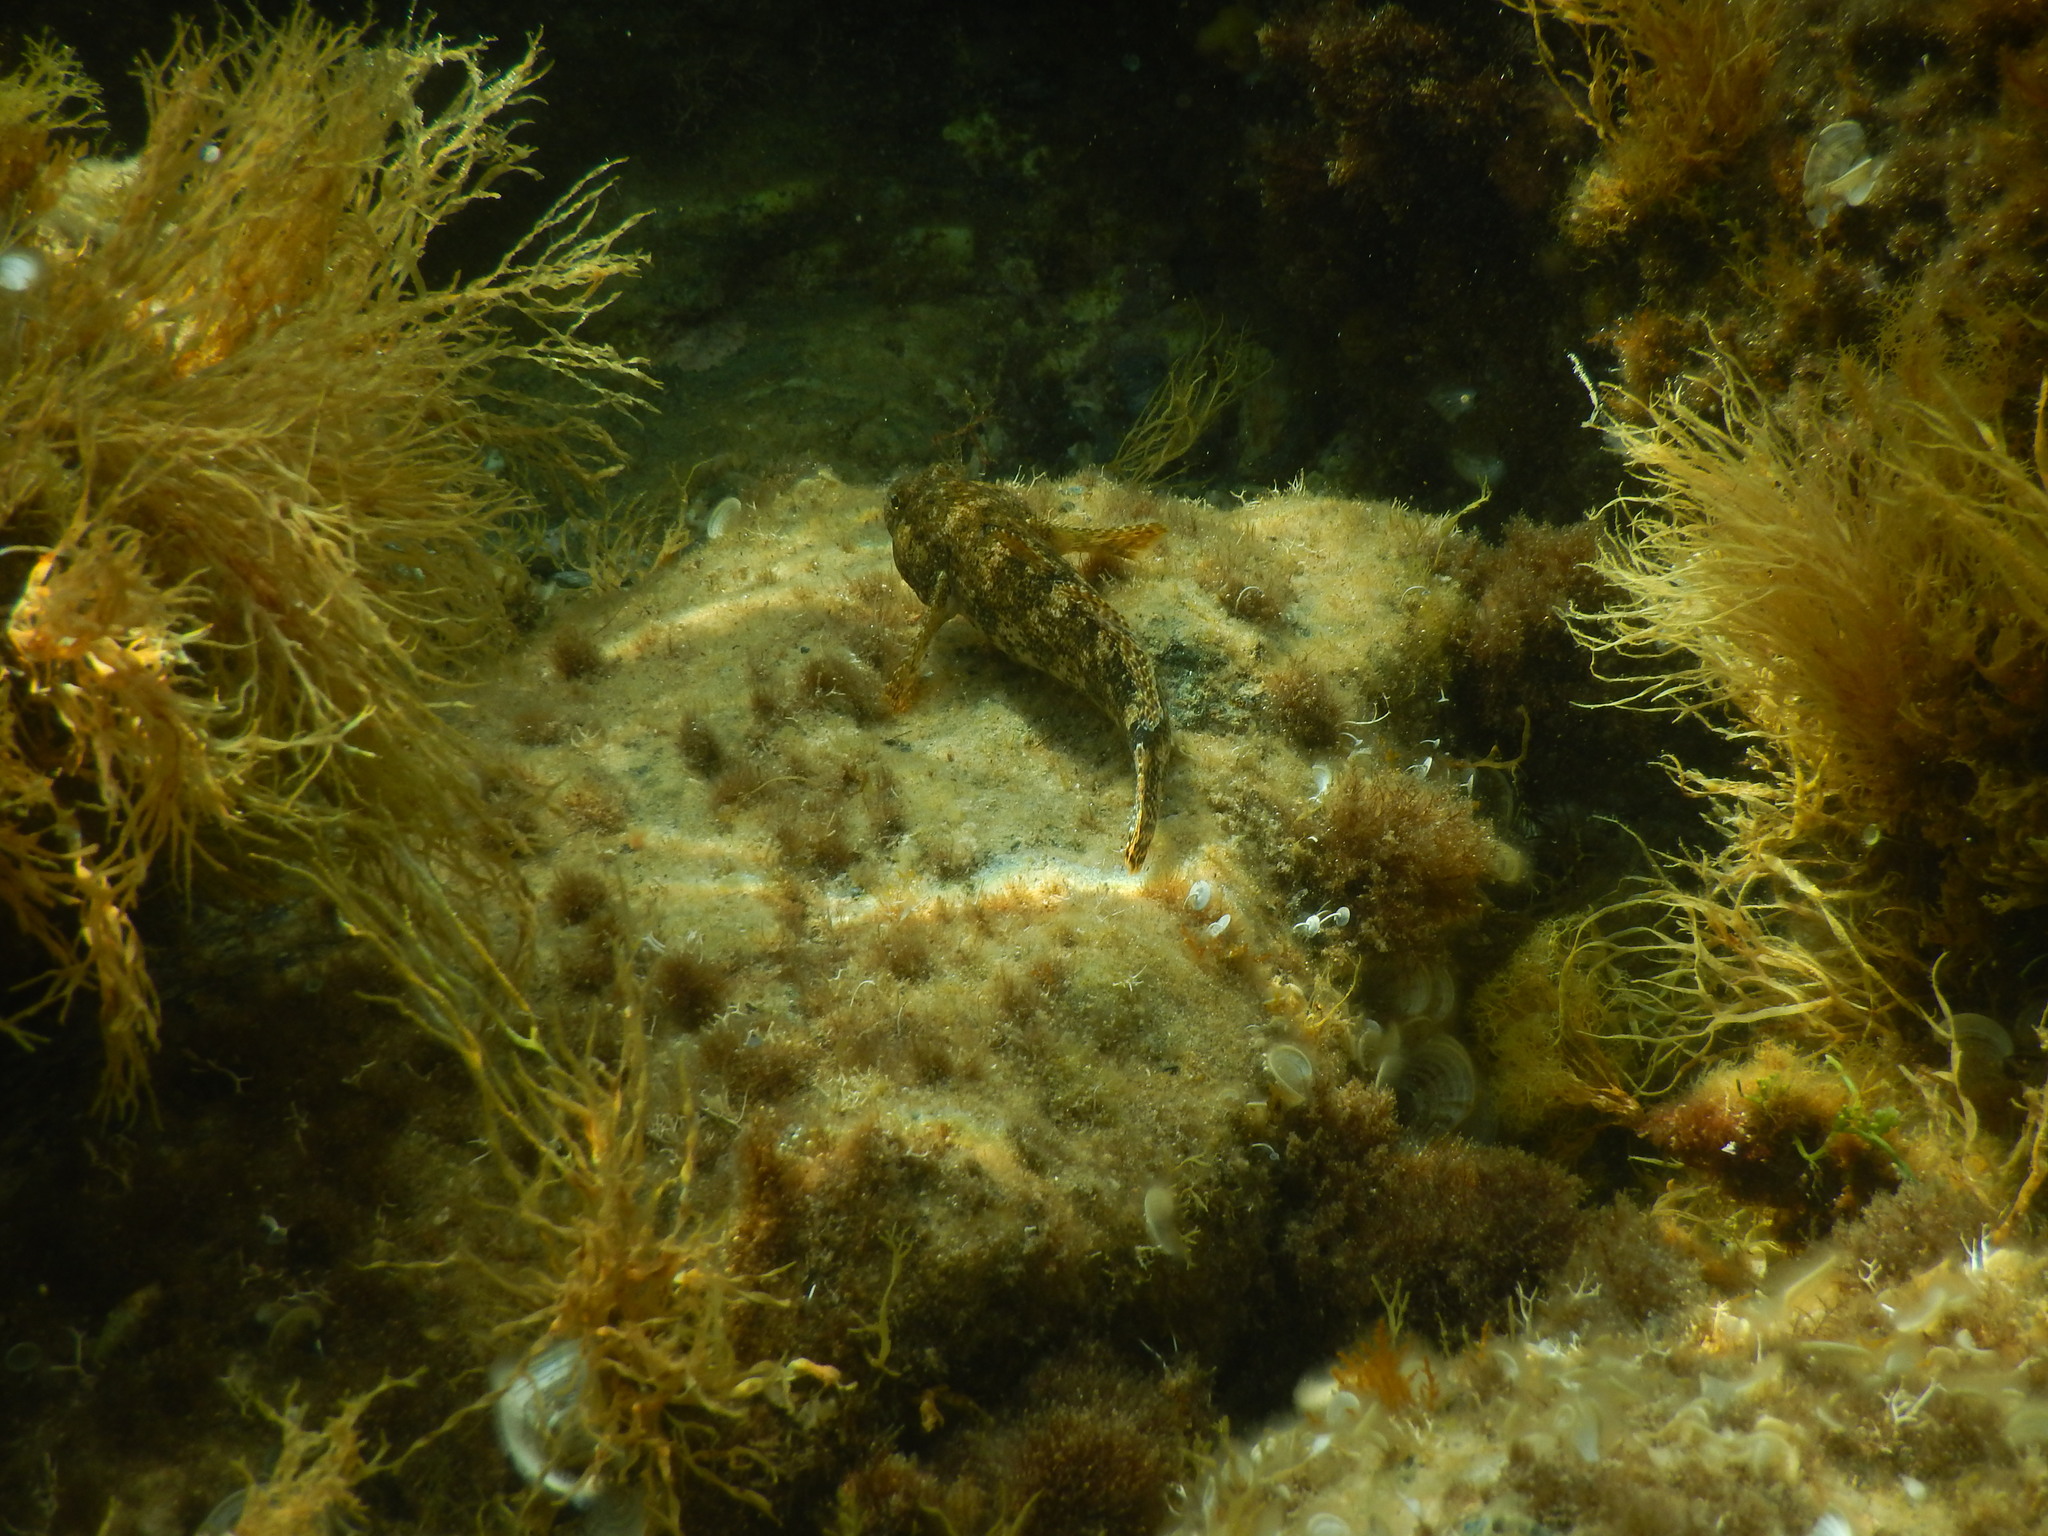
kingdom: Animalia
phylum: Chordata
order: Perciformes
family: Gobiidae
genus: Gobius
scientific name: Gobius cobitis
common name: Giant goby
